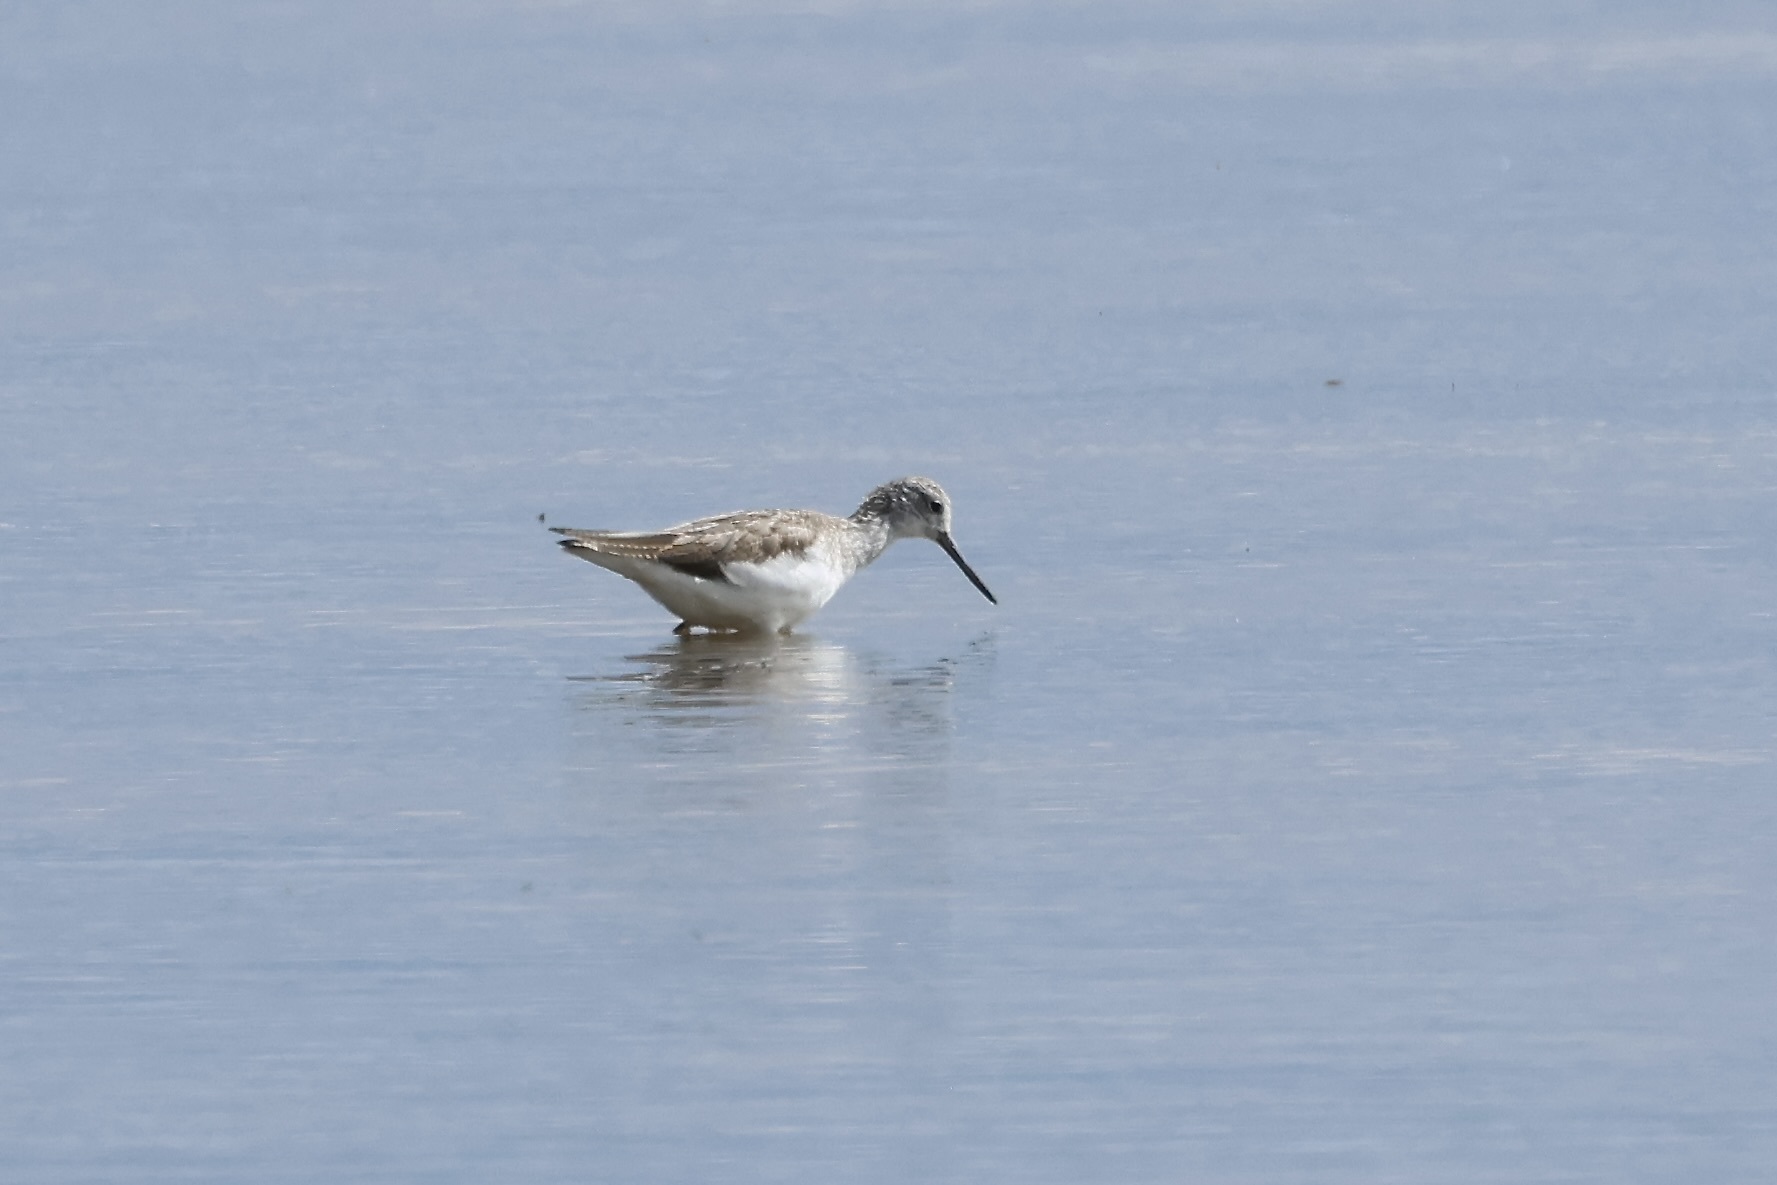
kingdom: Animalia
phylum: Chordata
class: Aves
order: Charadriiformes
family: Scolopacidae
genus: Tringa
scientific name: Tringa nebularia
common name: Common greenshank
